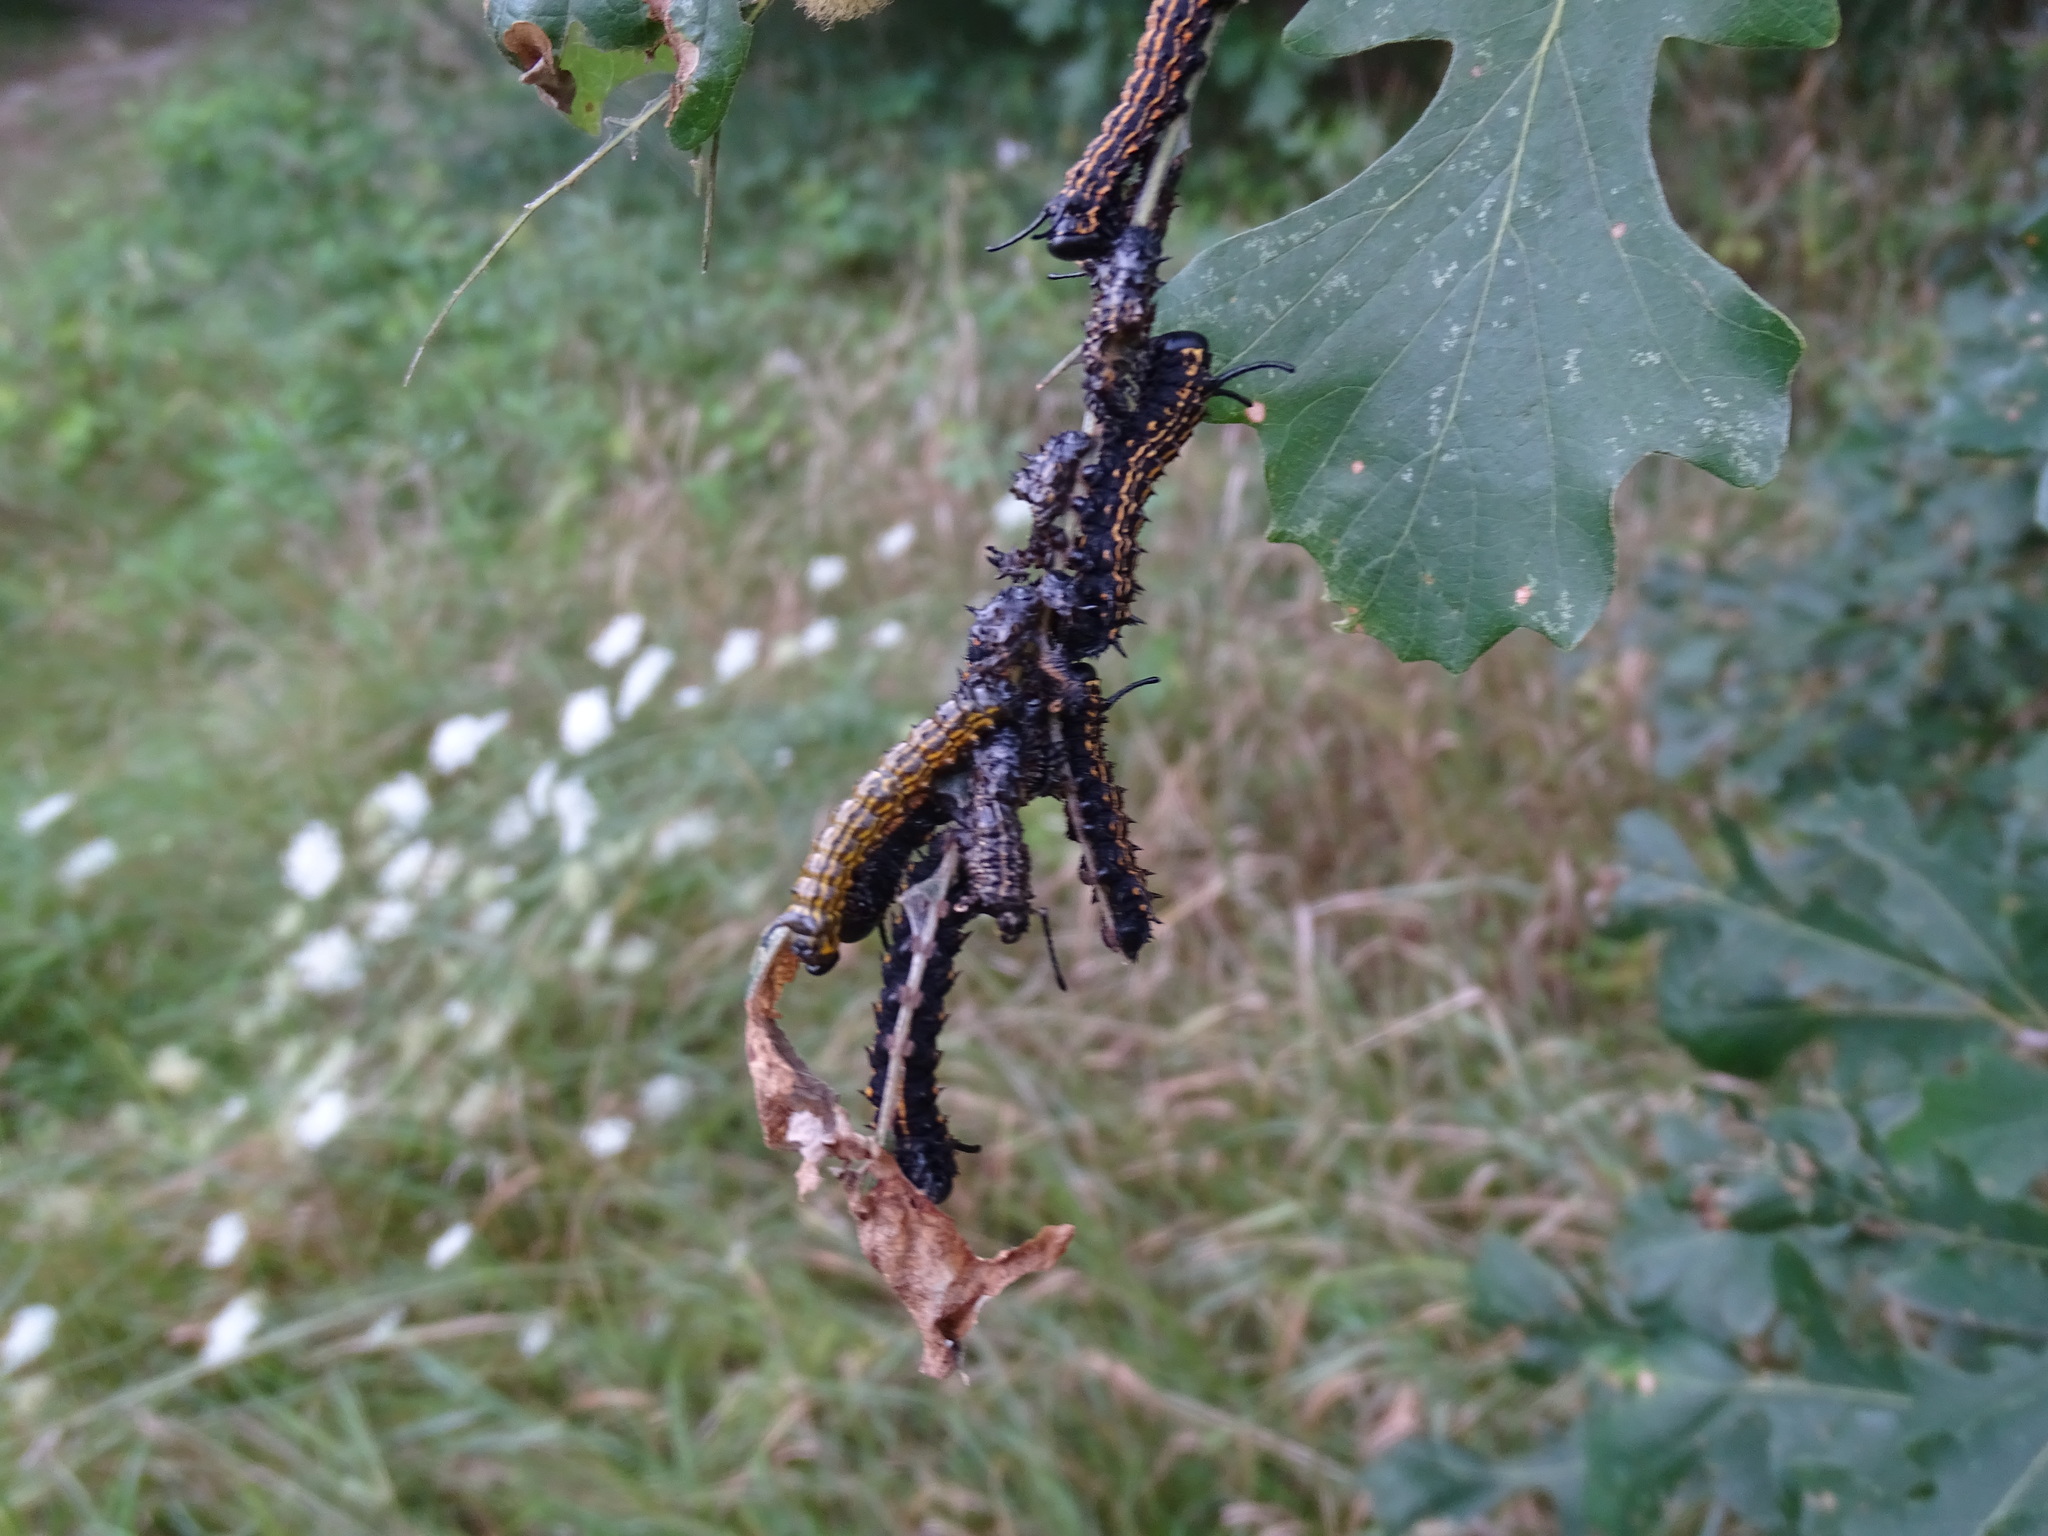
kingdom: Animalia
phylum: Arthropoda
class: Insecta
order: Lepidoptera
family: Saturniidae
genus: Anisota
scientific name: Anisota senatoria
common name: Orange-striped oakworm moth
